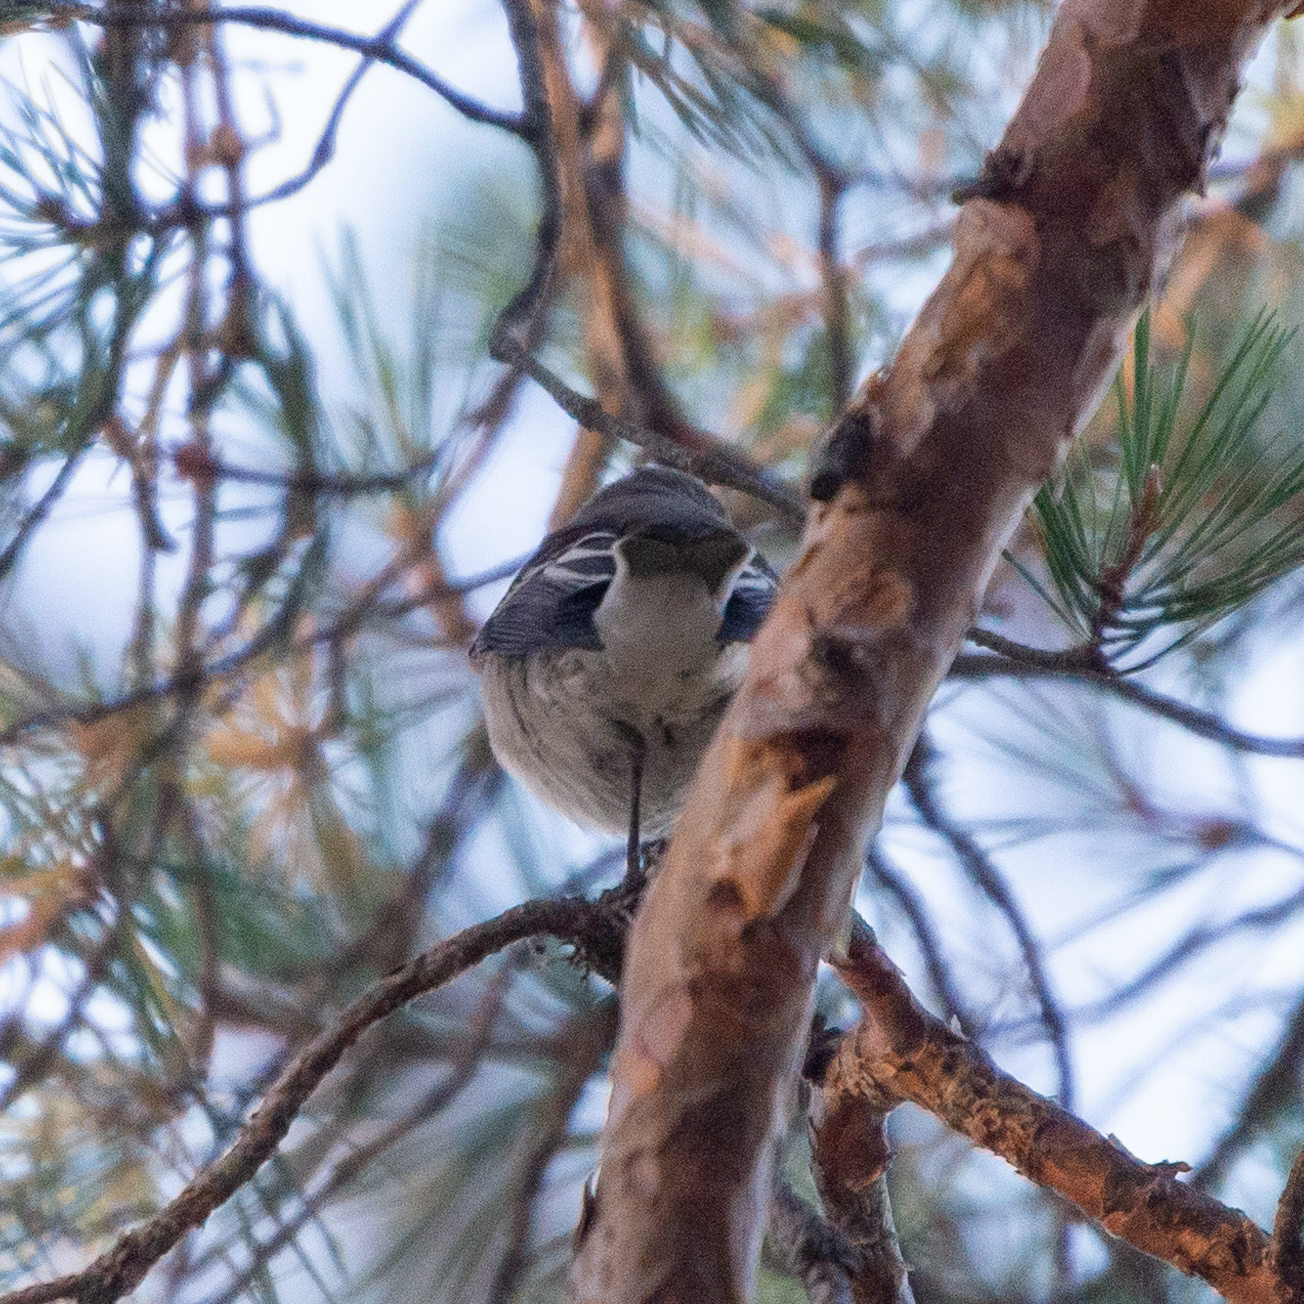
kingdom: Animalia
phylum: Chordata
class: Aves
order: Passeriformes
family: Muscicapidae
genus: Ficedula
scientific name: Ficedula hypoleuca
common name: European pied flycatcher
